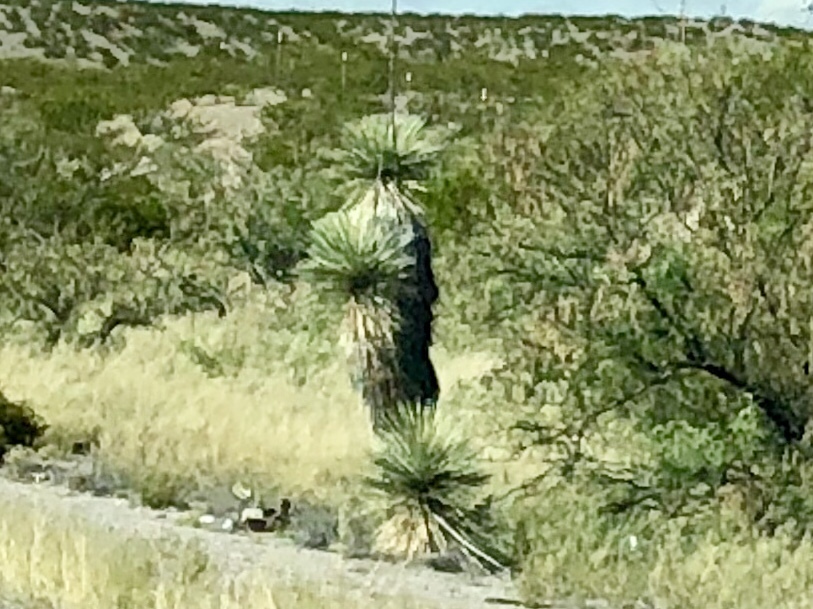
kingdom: Plantae
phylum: Tracheophyta
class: Liliopsida
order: Asparagales
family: Asparagaceae
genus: Yucca
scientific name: Yucca elata
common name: Palmella
